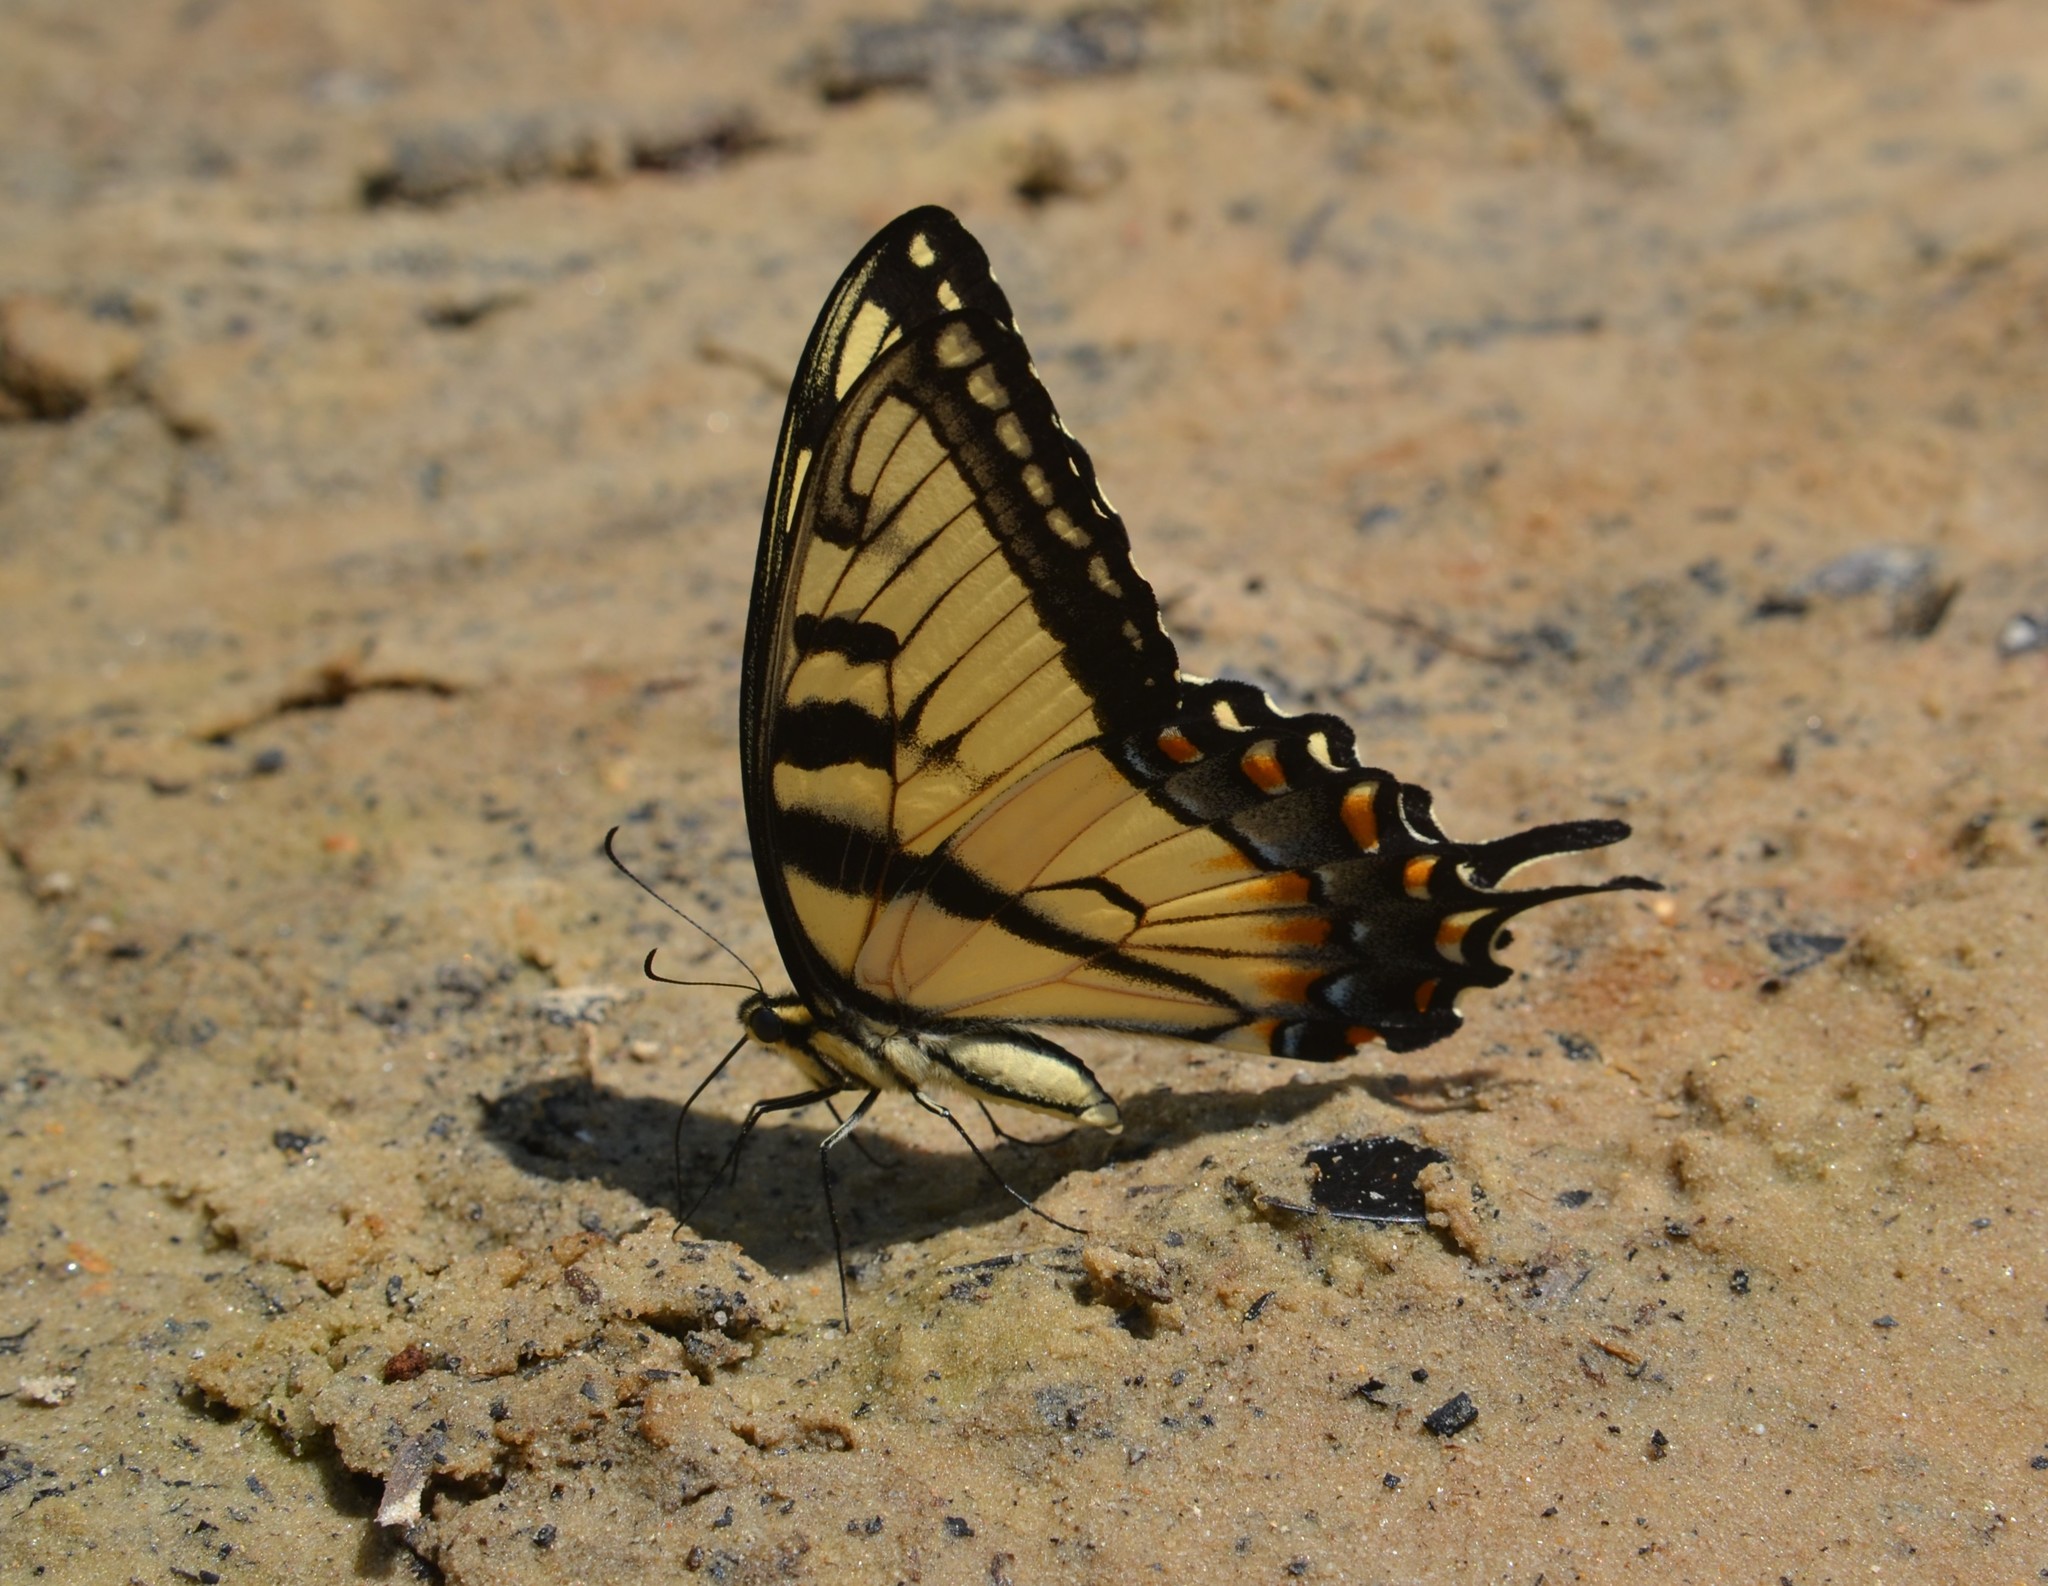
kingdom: Animalia
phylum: Arthropoda
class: Insecta
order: Lepidoptera
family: Papilionidae
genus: Papilio
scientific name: Papilio glaucus
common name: Tiger swallowtail
